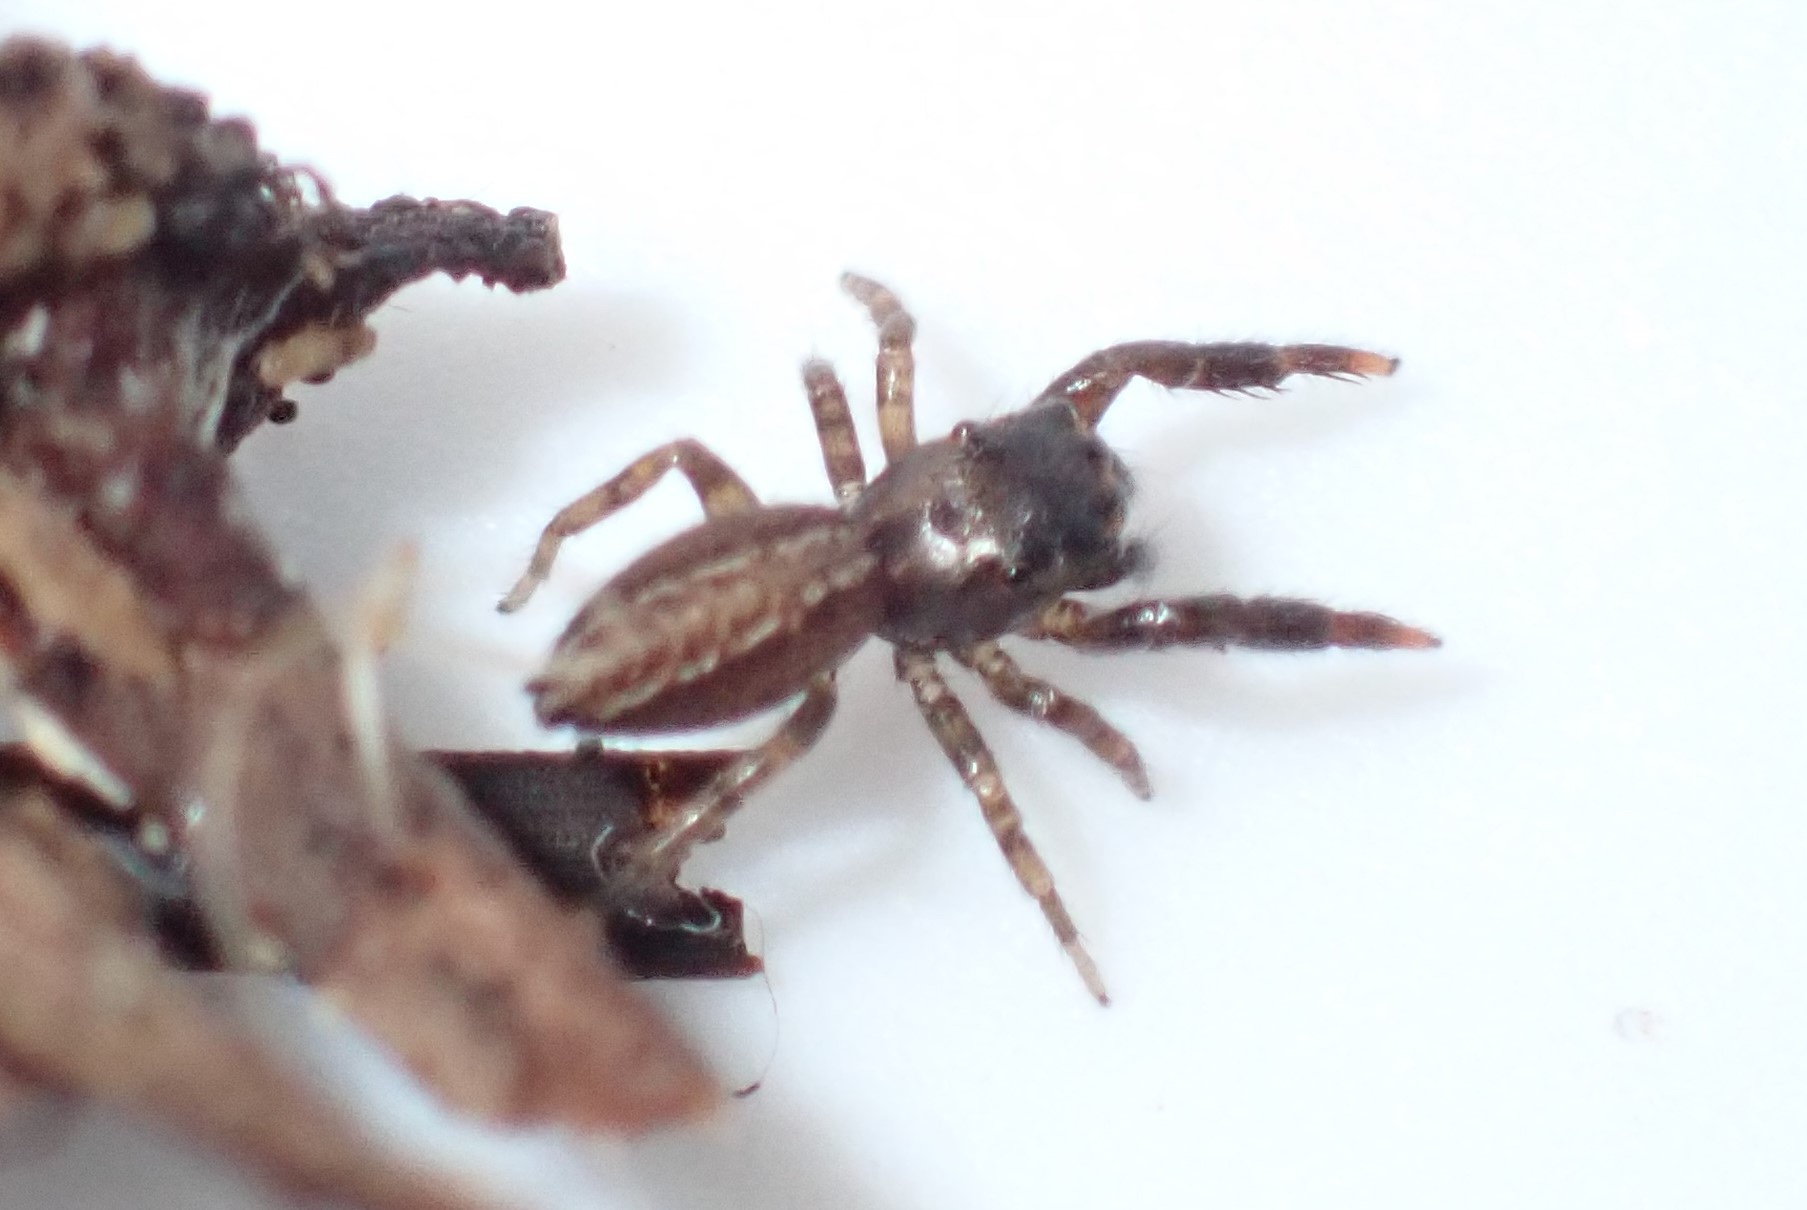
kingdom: Animalia
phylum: Arthropoda
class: Arachnida
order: Araneae
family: Salticidae
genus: Marpissa
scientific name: Marpissa lineata
